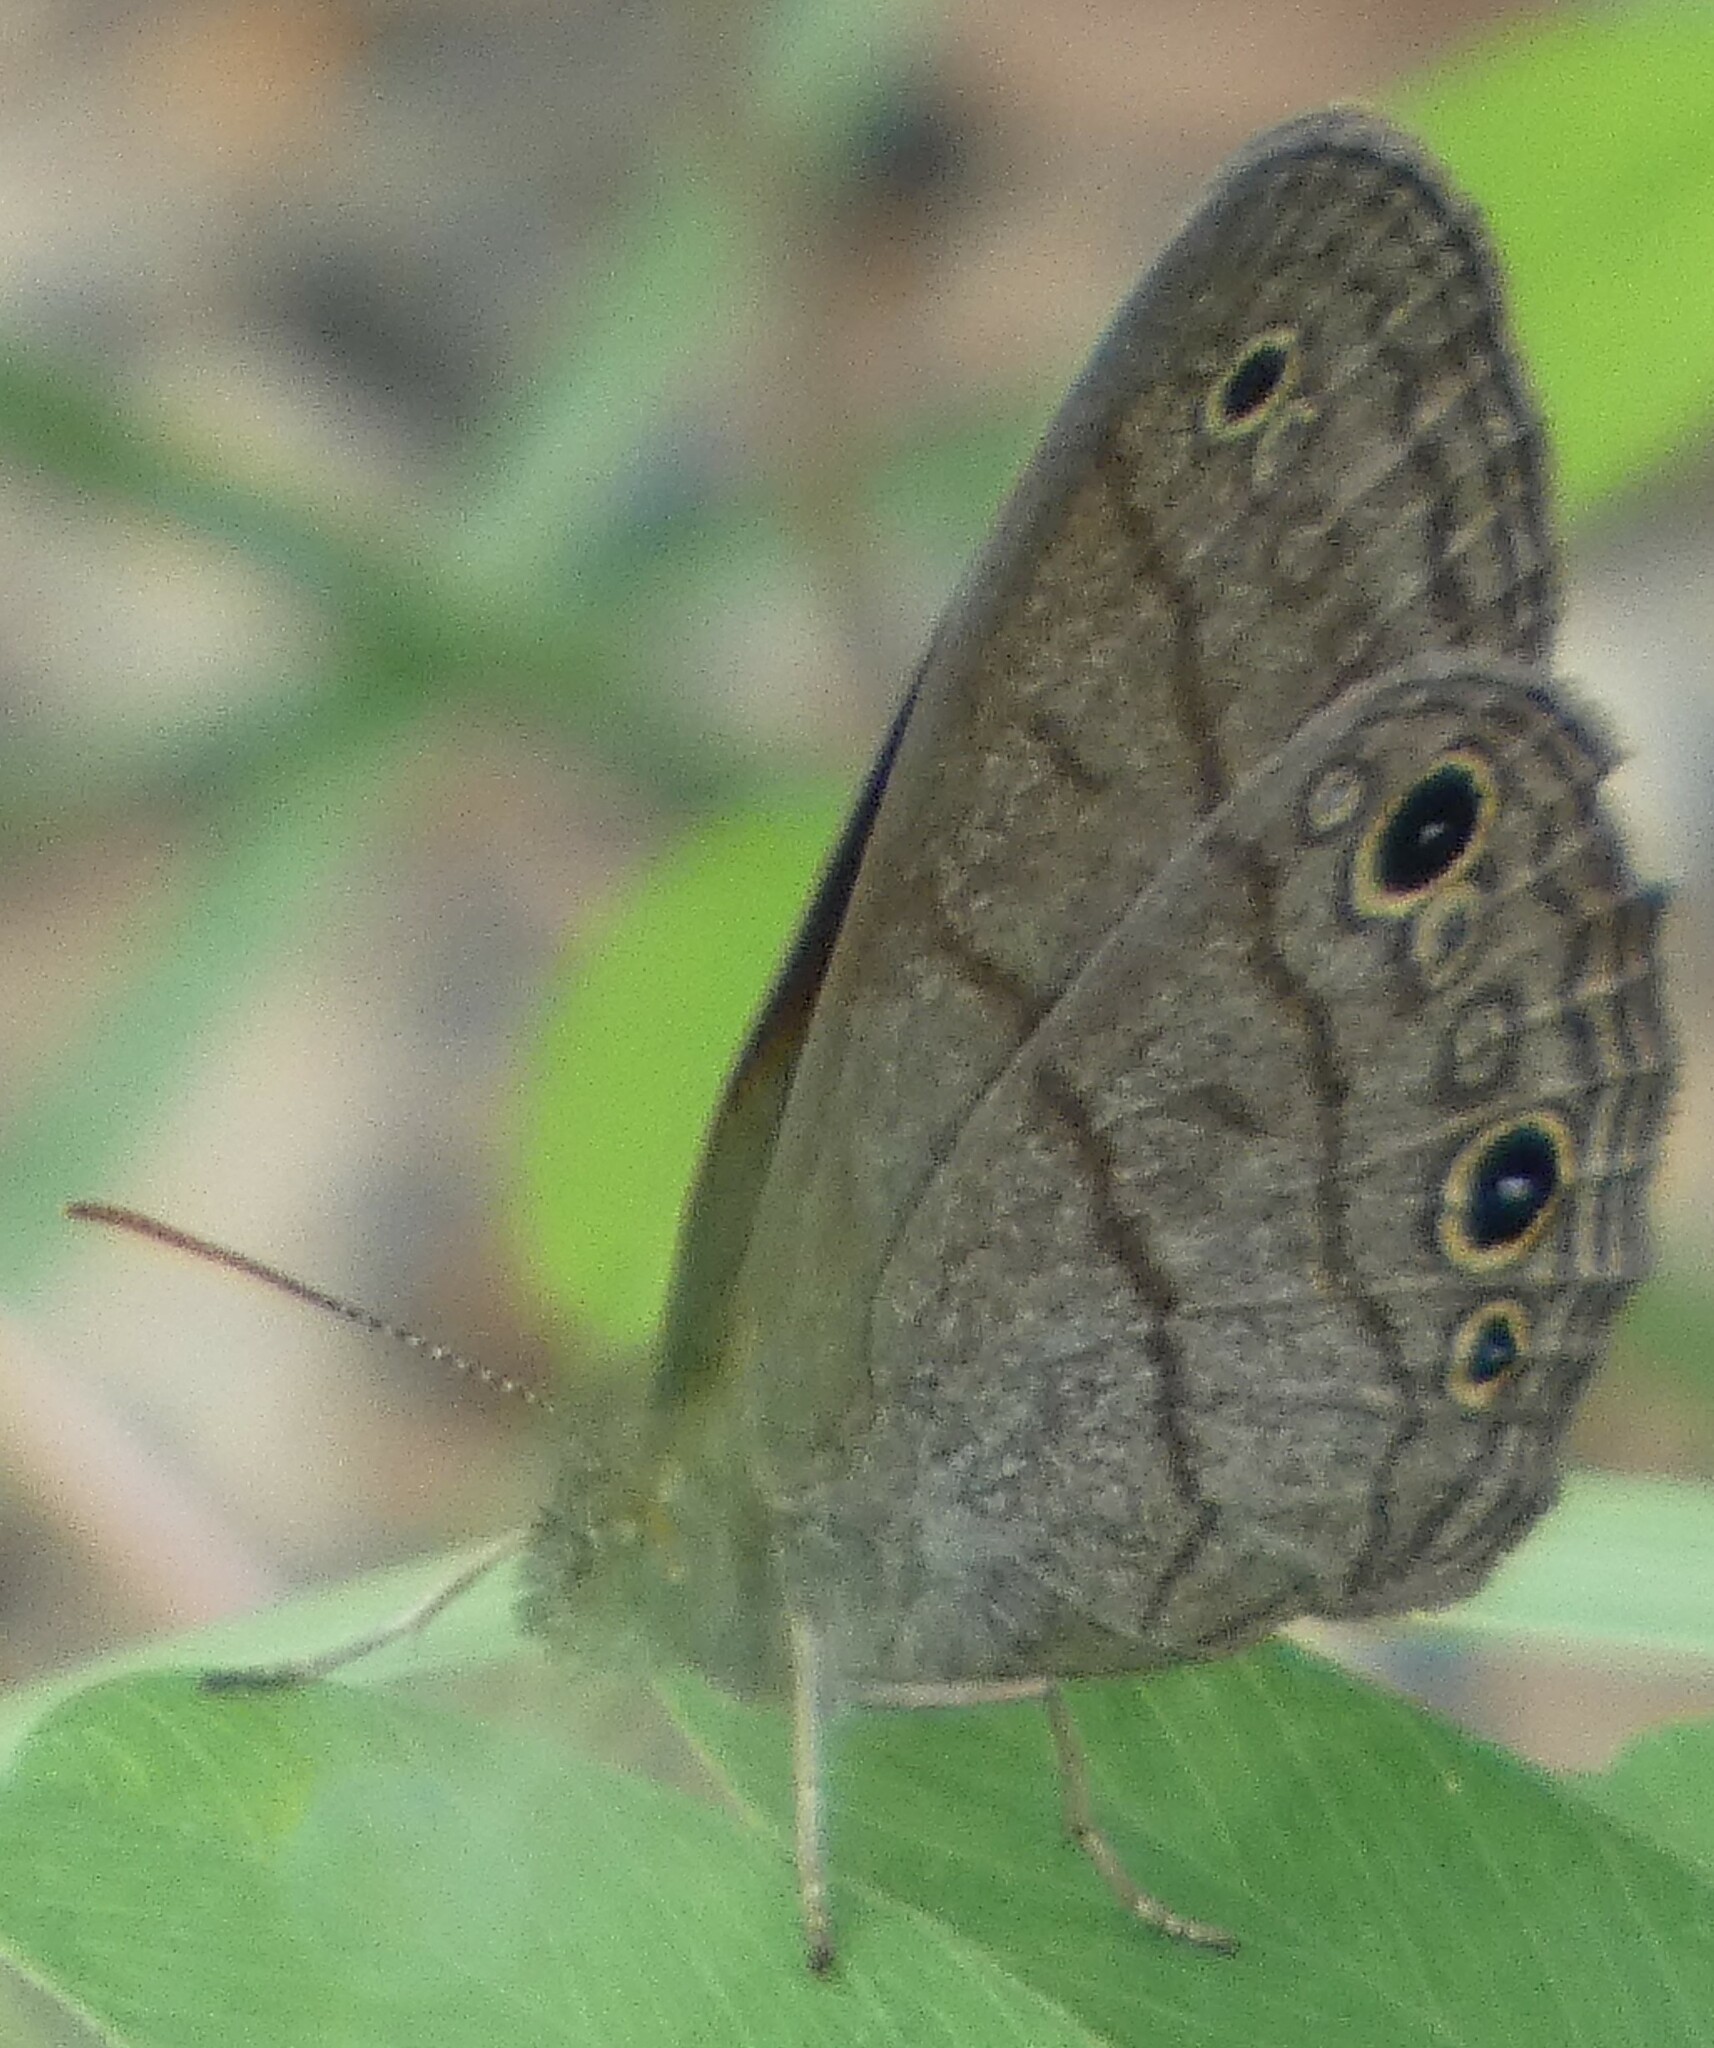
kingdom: Animalia
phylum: Arthropoda
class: Insecta
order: Lepidoptera
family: Nymphalidae
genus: Hermeuptychia
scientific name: Hermeuptychia hermes
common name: Hermes satyr
